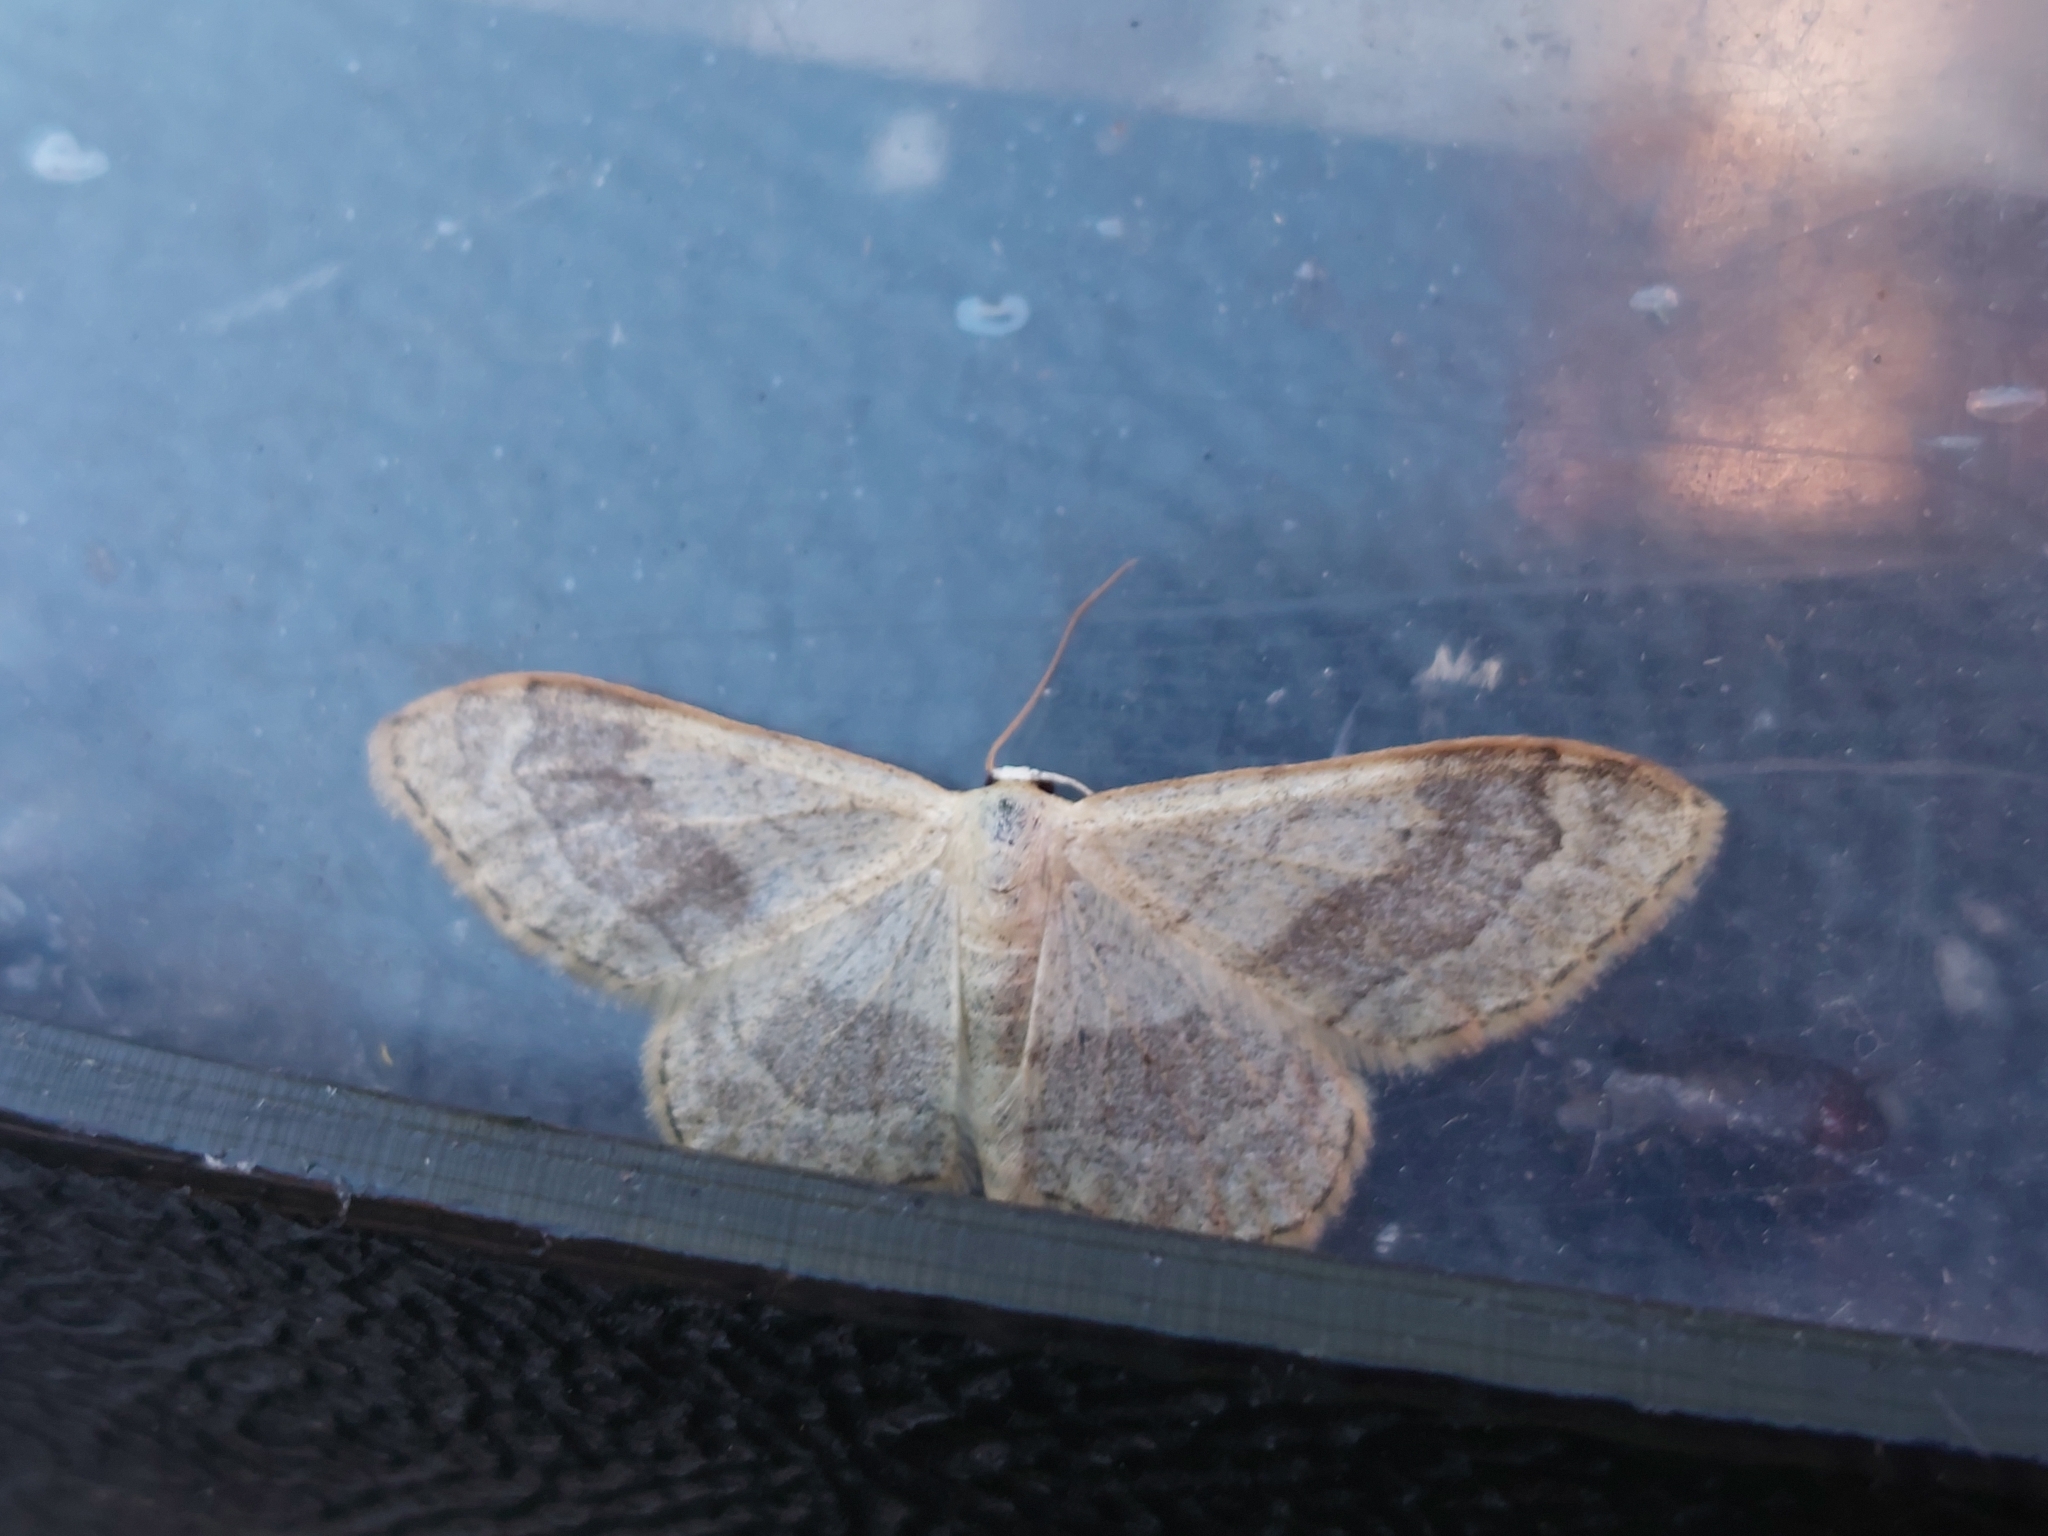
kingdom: Animalia
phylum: Arthropoda
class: Insecta
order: Lepidoptera
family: Geometridae
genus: Idaea
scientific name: Idaea aversata
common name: Riband wave
